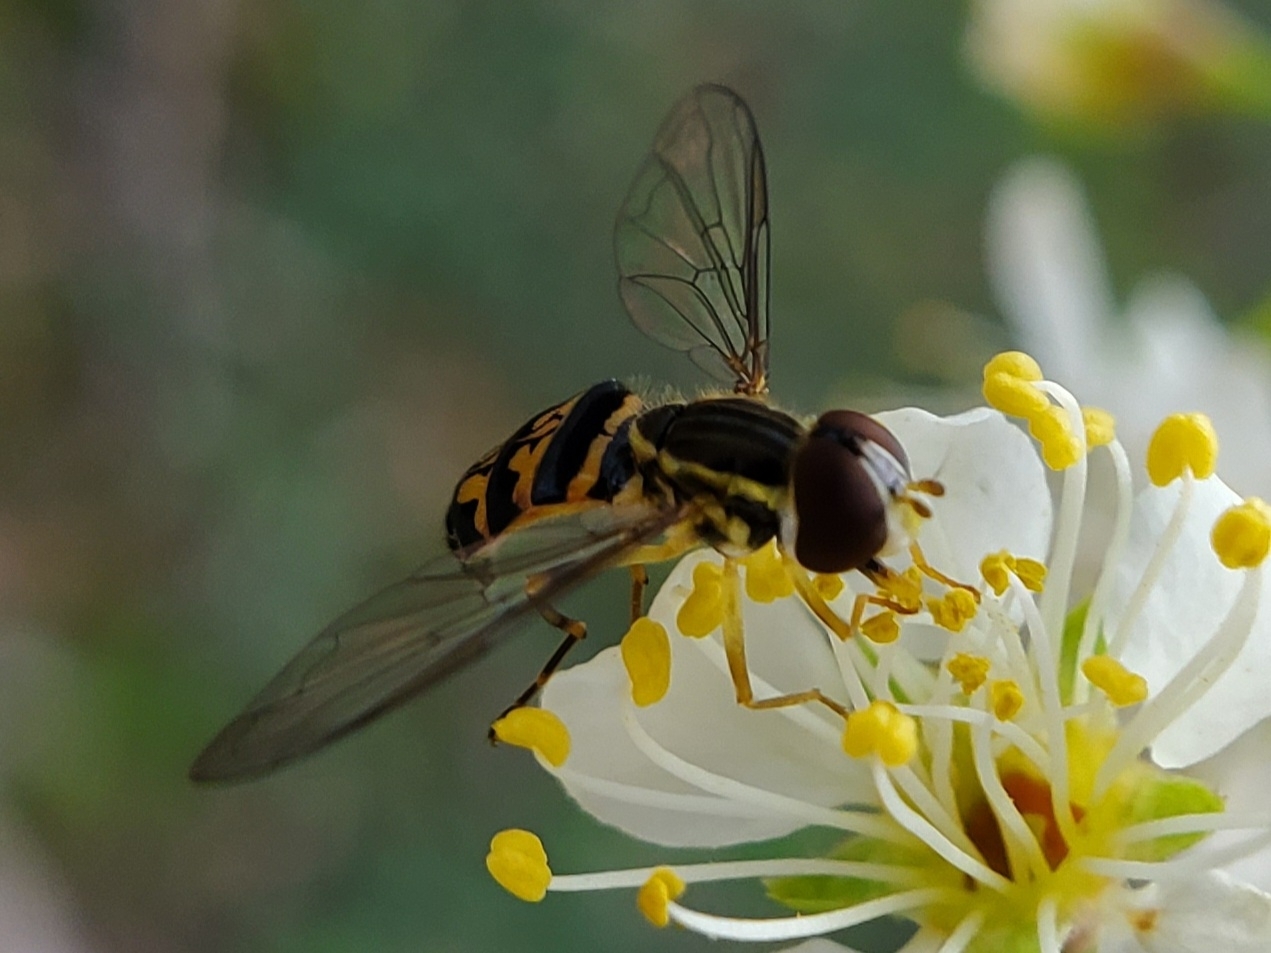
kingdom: Animalia
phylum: Arthropoda
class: Insecta
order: Diptera
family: Syrphidae
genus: Toxomerus
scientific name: Toxomerus geminatus
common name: Eastern calligrapher
